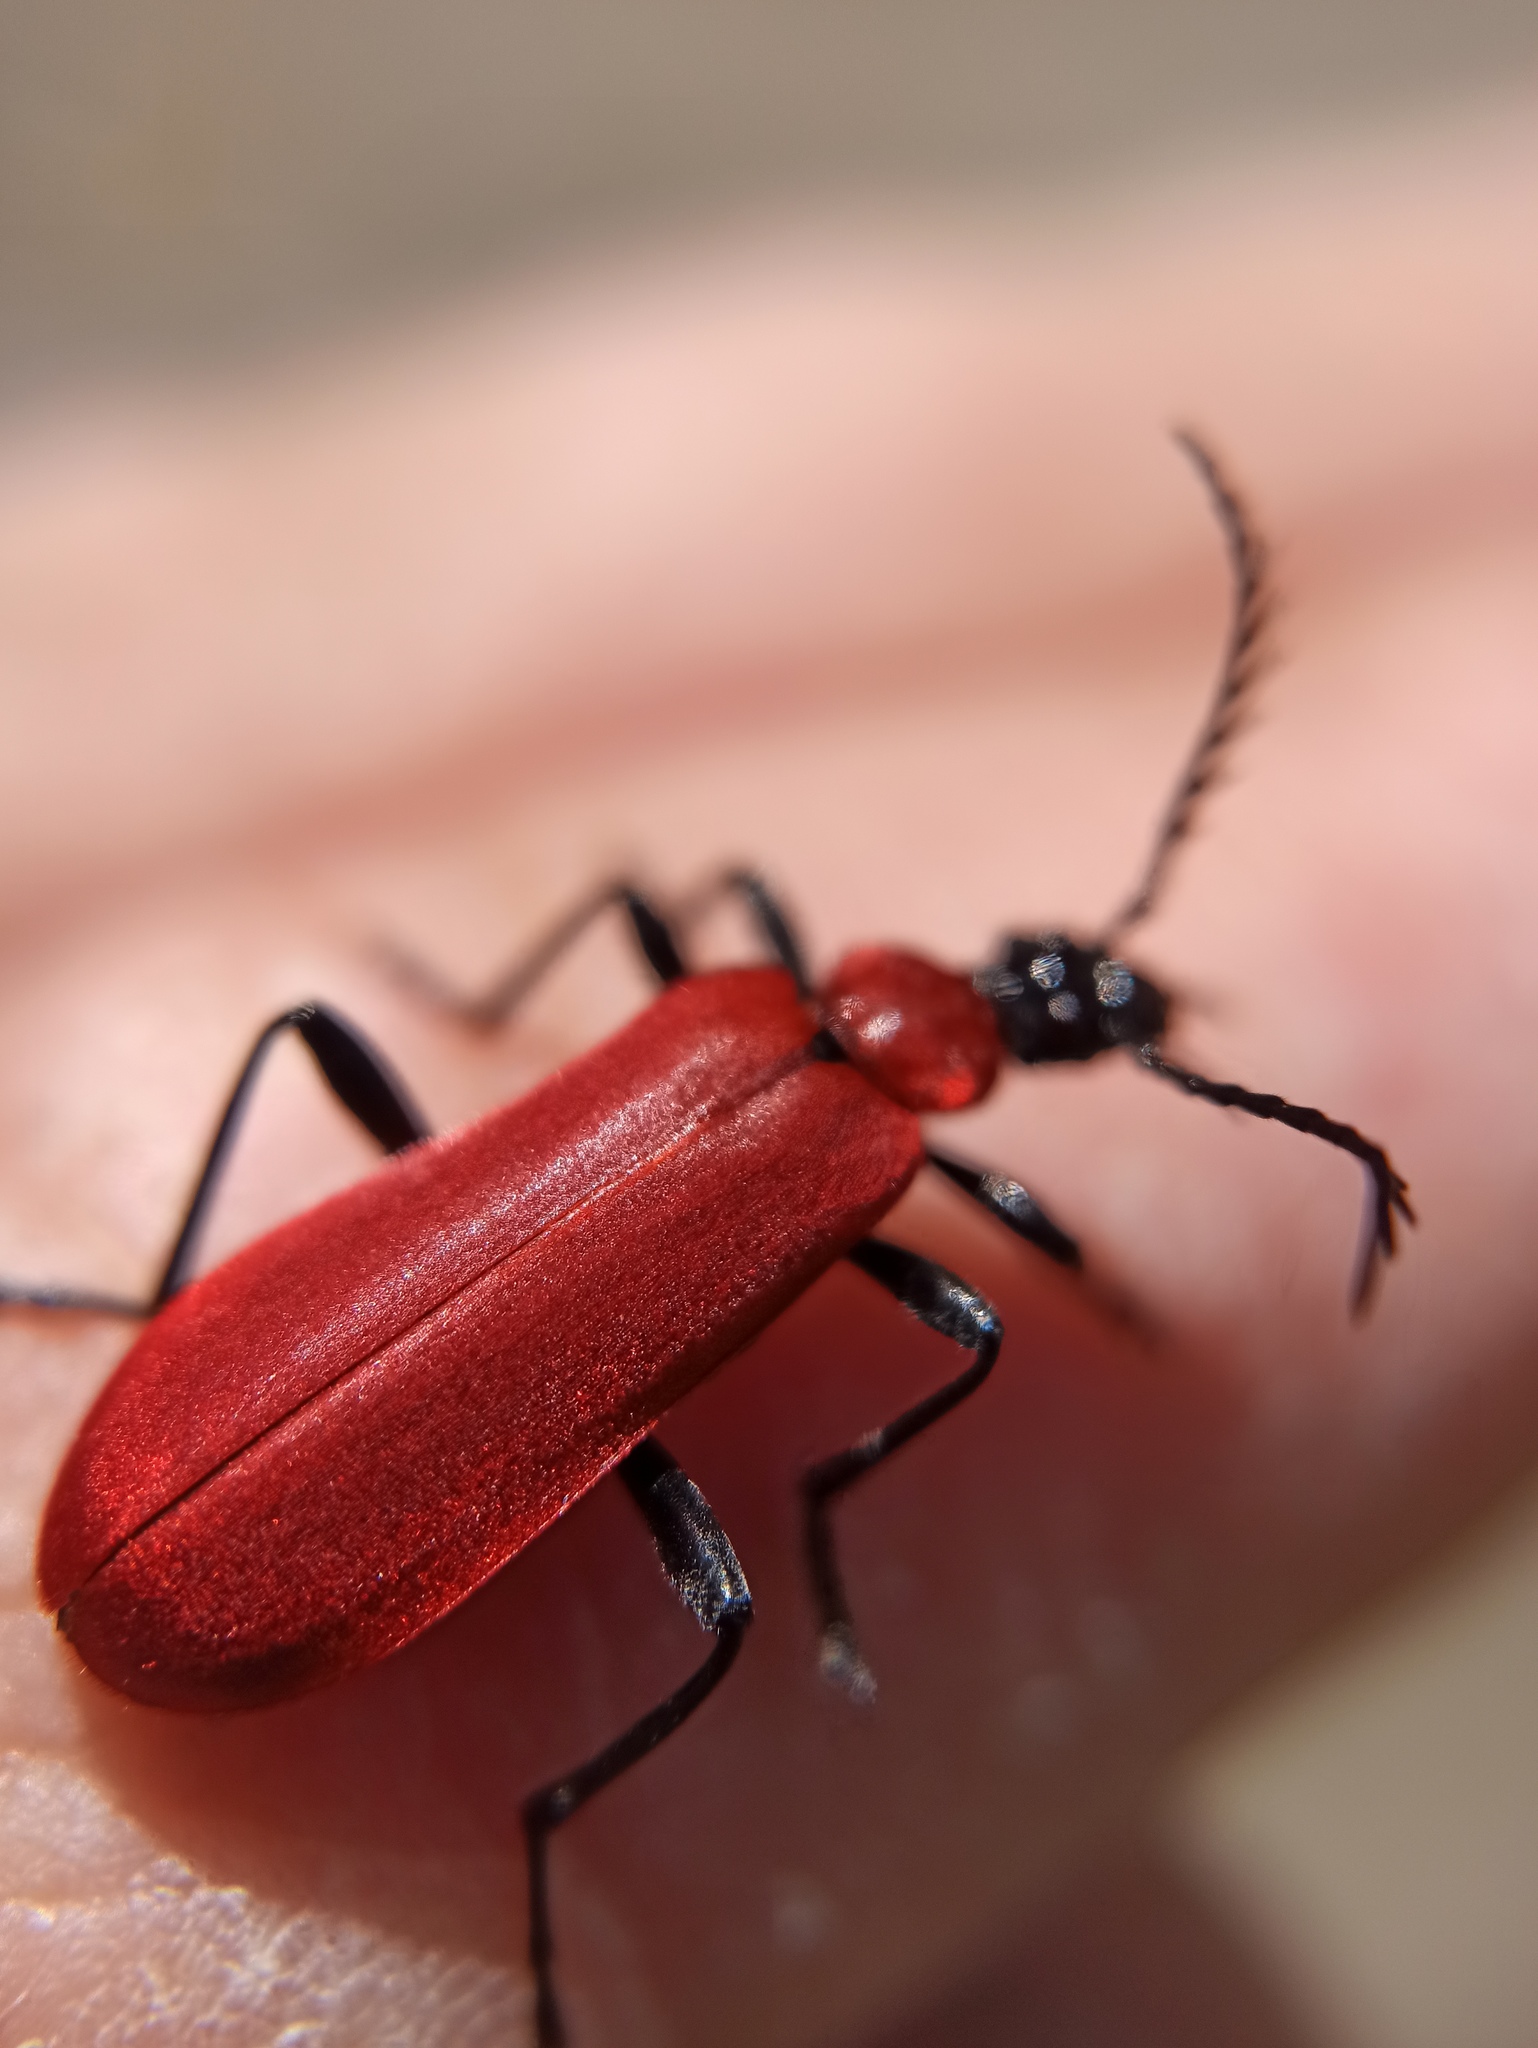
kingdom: Animalia
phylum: Arthropoda
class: Insecta
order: Coleoptera
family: Pyrochroidae
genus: Pyrochroa
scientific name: Pyrochroa coccinea
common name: Black-headed cardinal beetle
